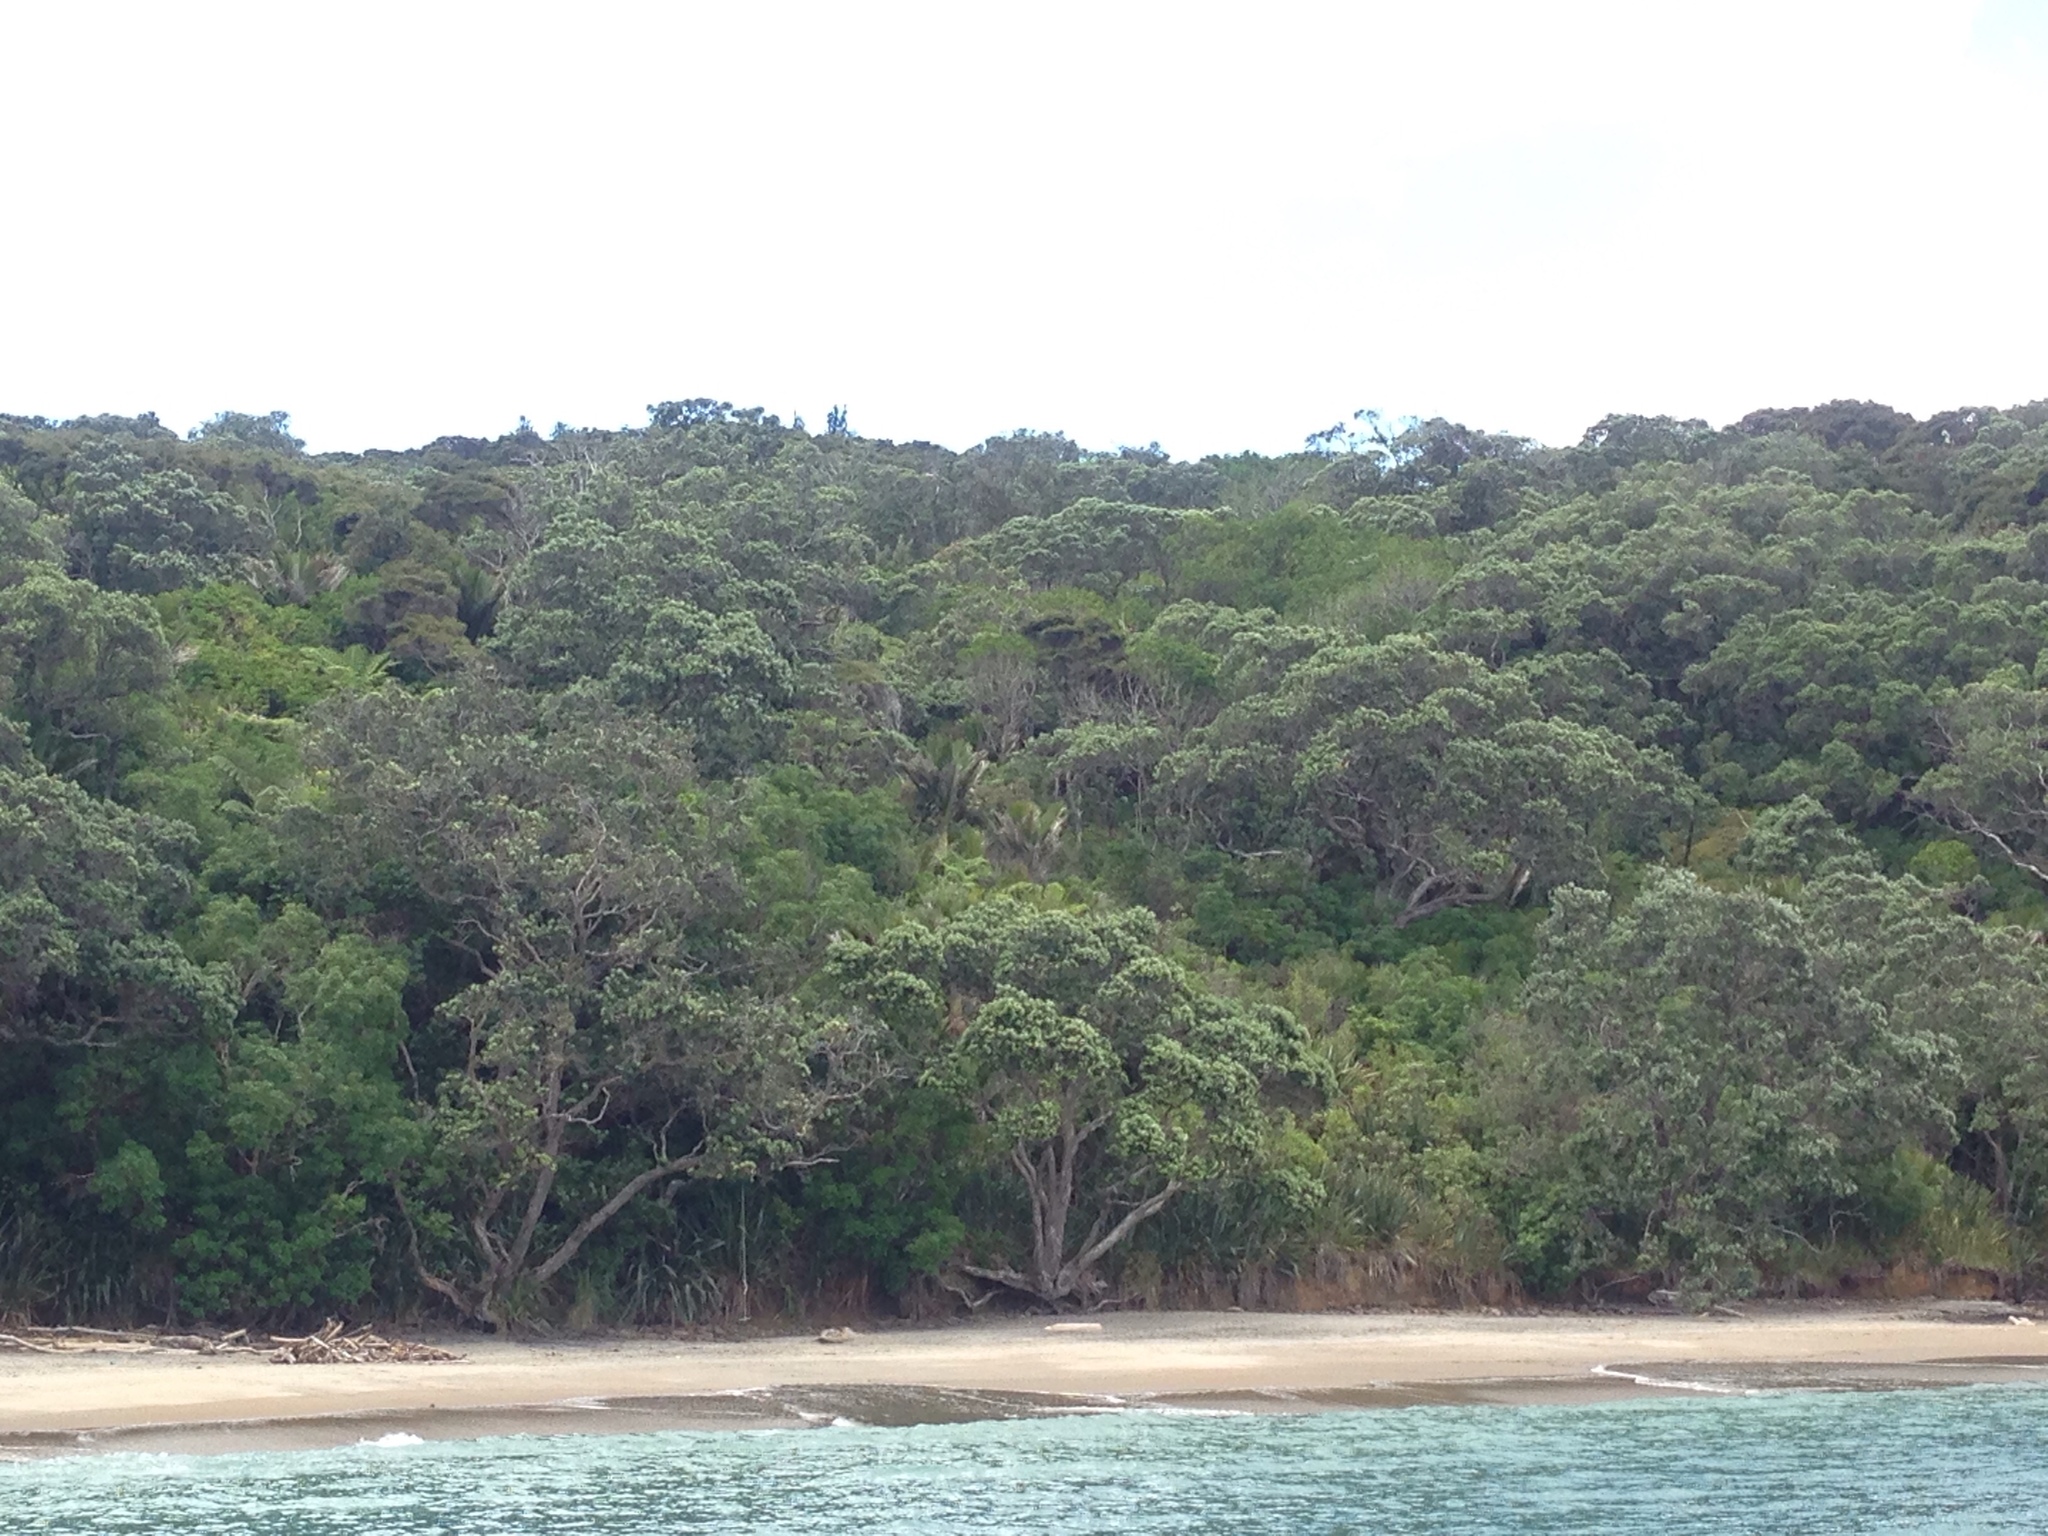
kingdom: Plantae
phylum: Tracheophyta
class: Magnoliopsida
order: Myrtales
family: Myrtaceae
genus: Metrosideros
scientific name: Metrosideros excelsa
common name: New zealand christmastree
